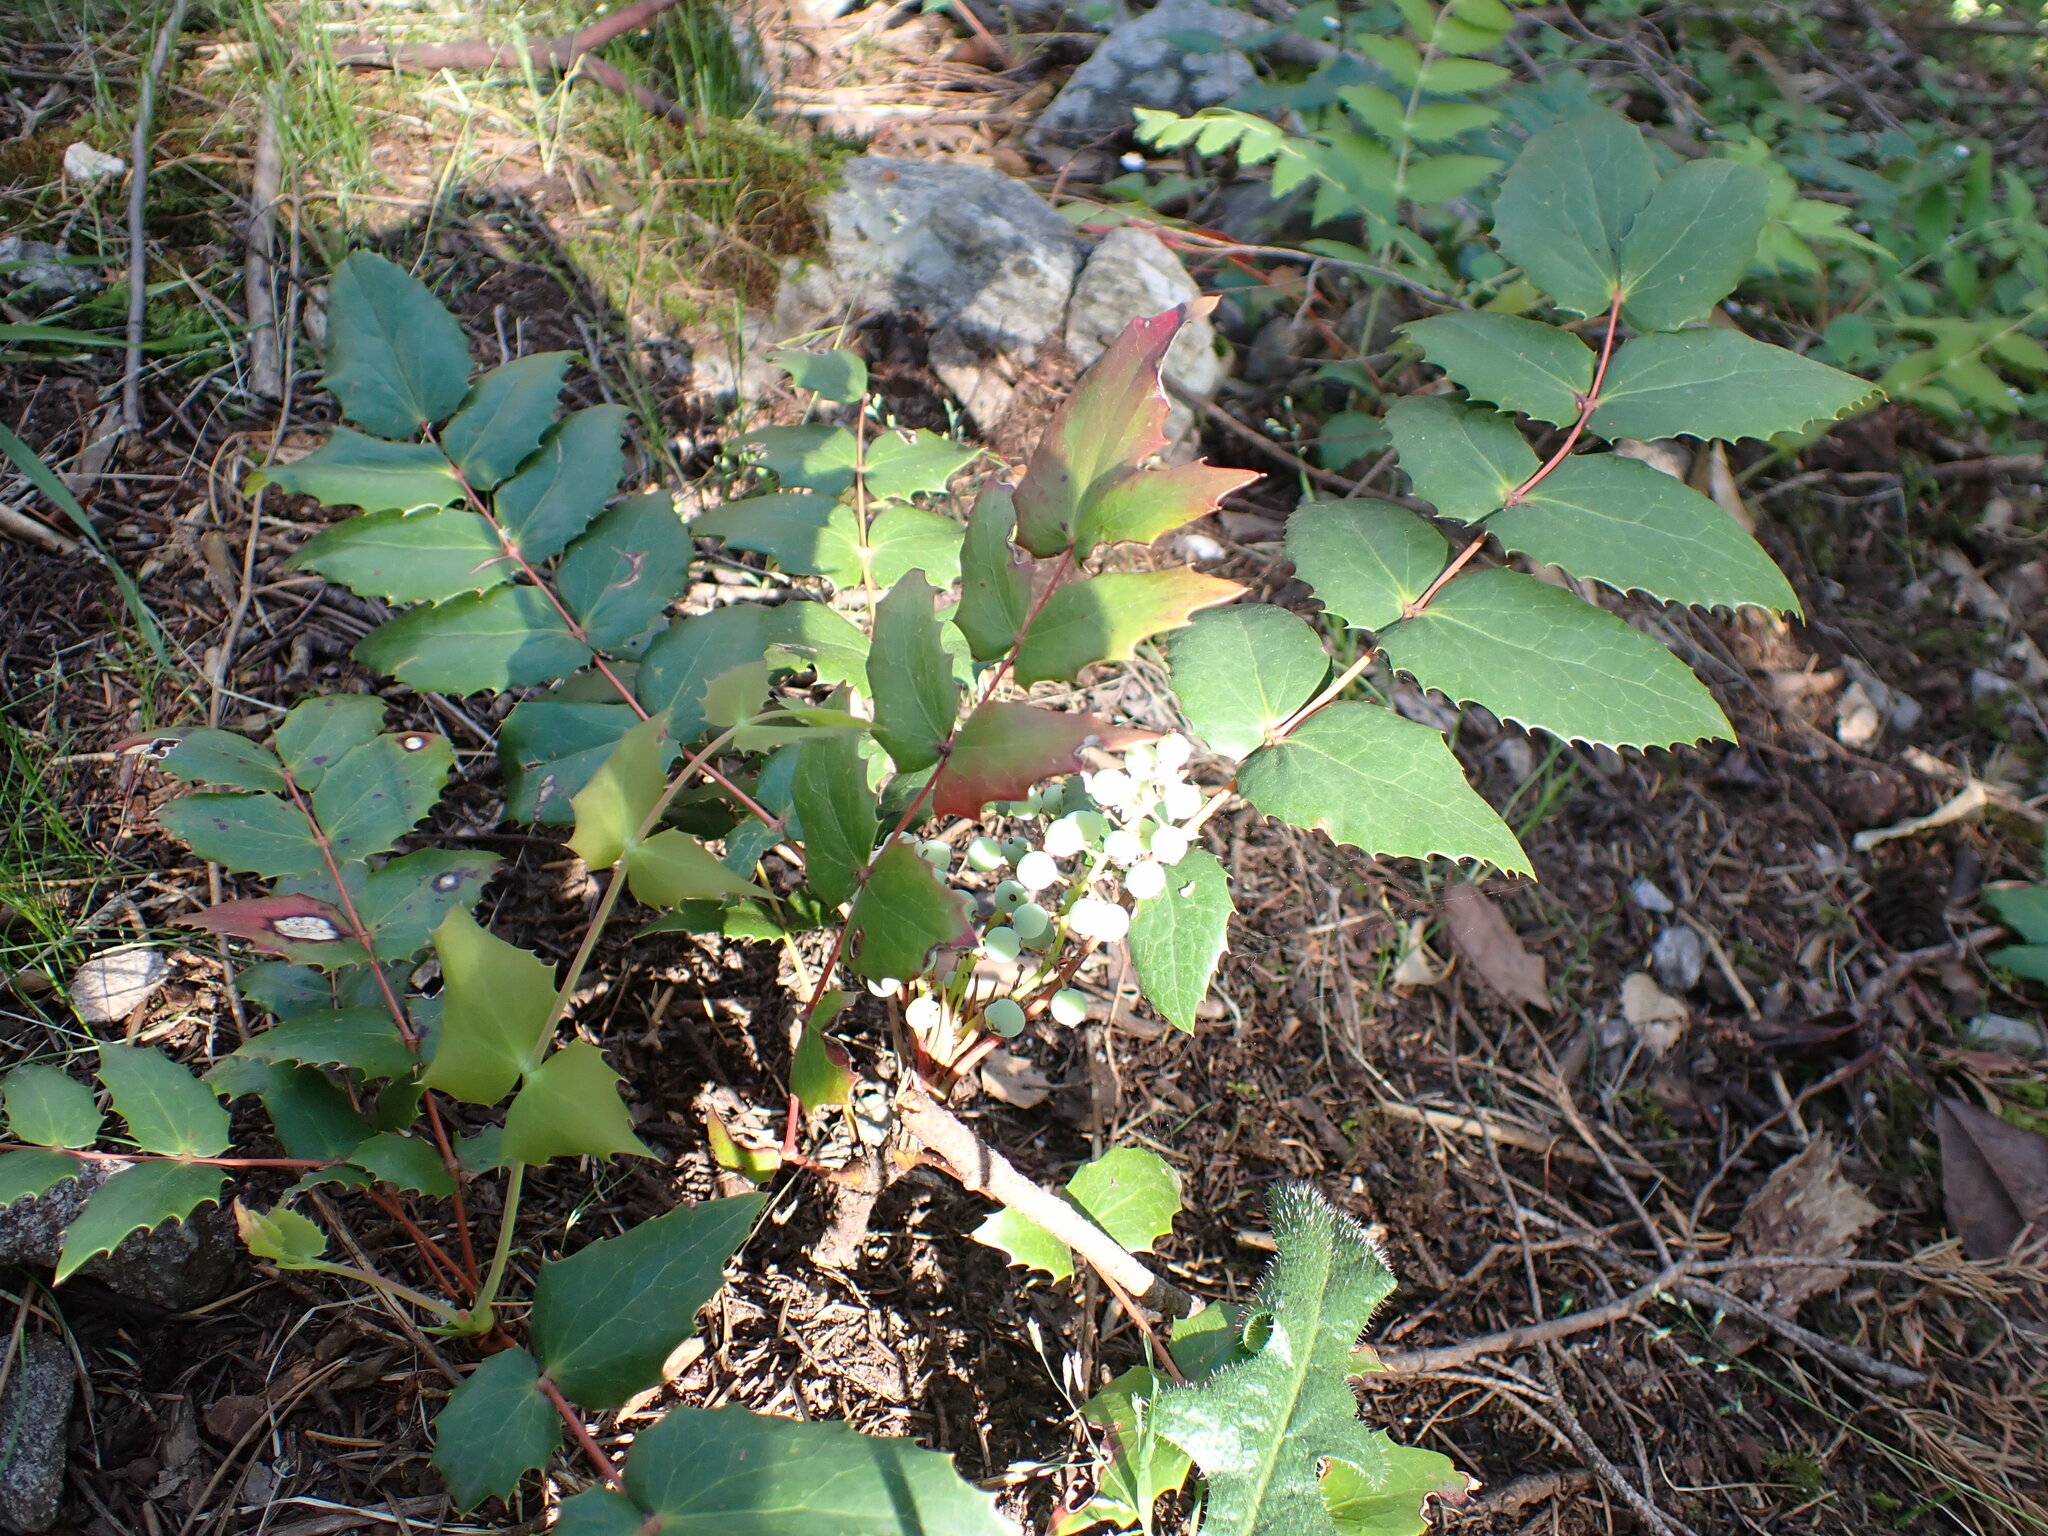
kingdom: Plantae
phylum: Tracheophyta
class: Magnoliopsida
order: Ranunculales
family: Berberidaceae
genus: Mahonia
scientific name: Mahonia nervosa
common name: Cascade oregon-grape
